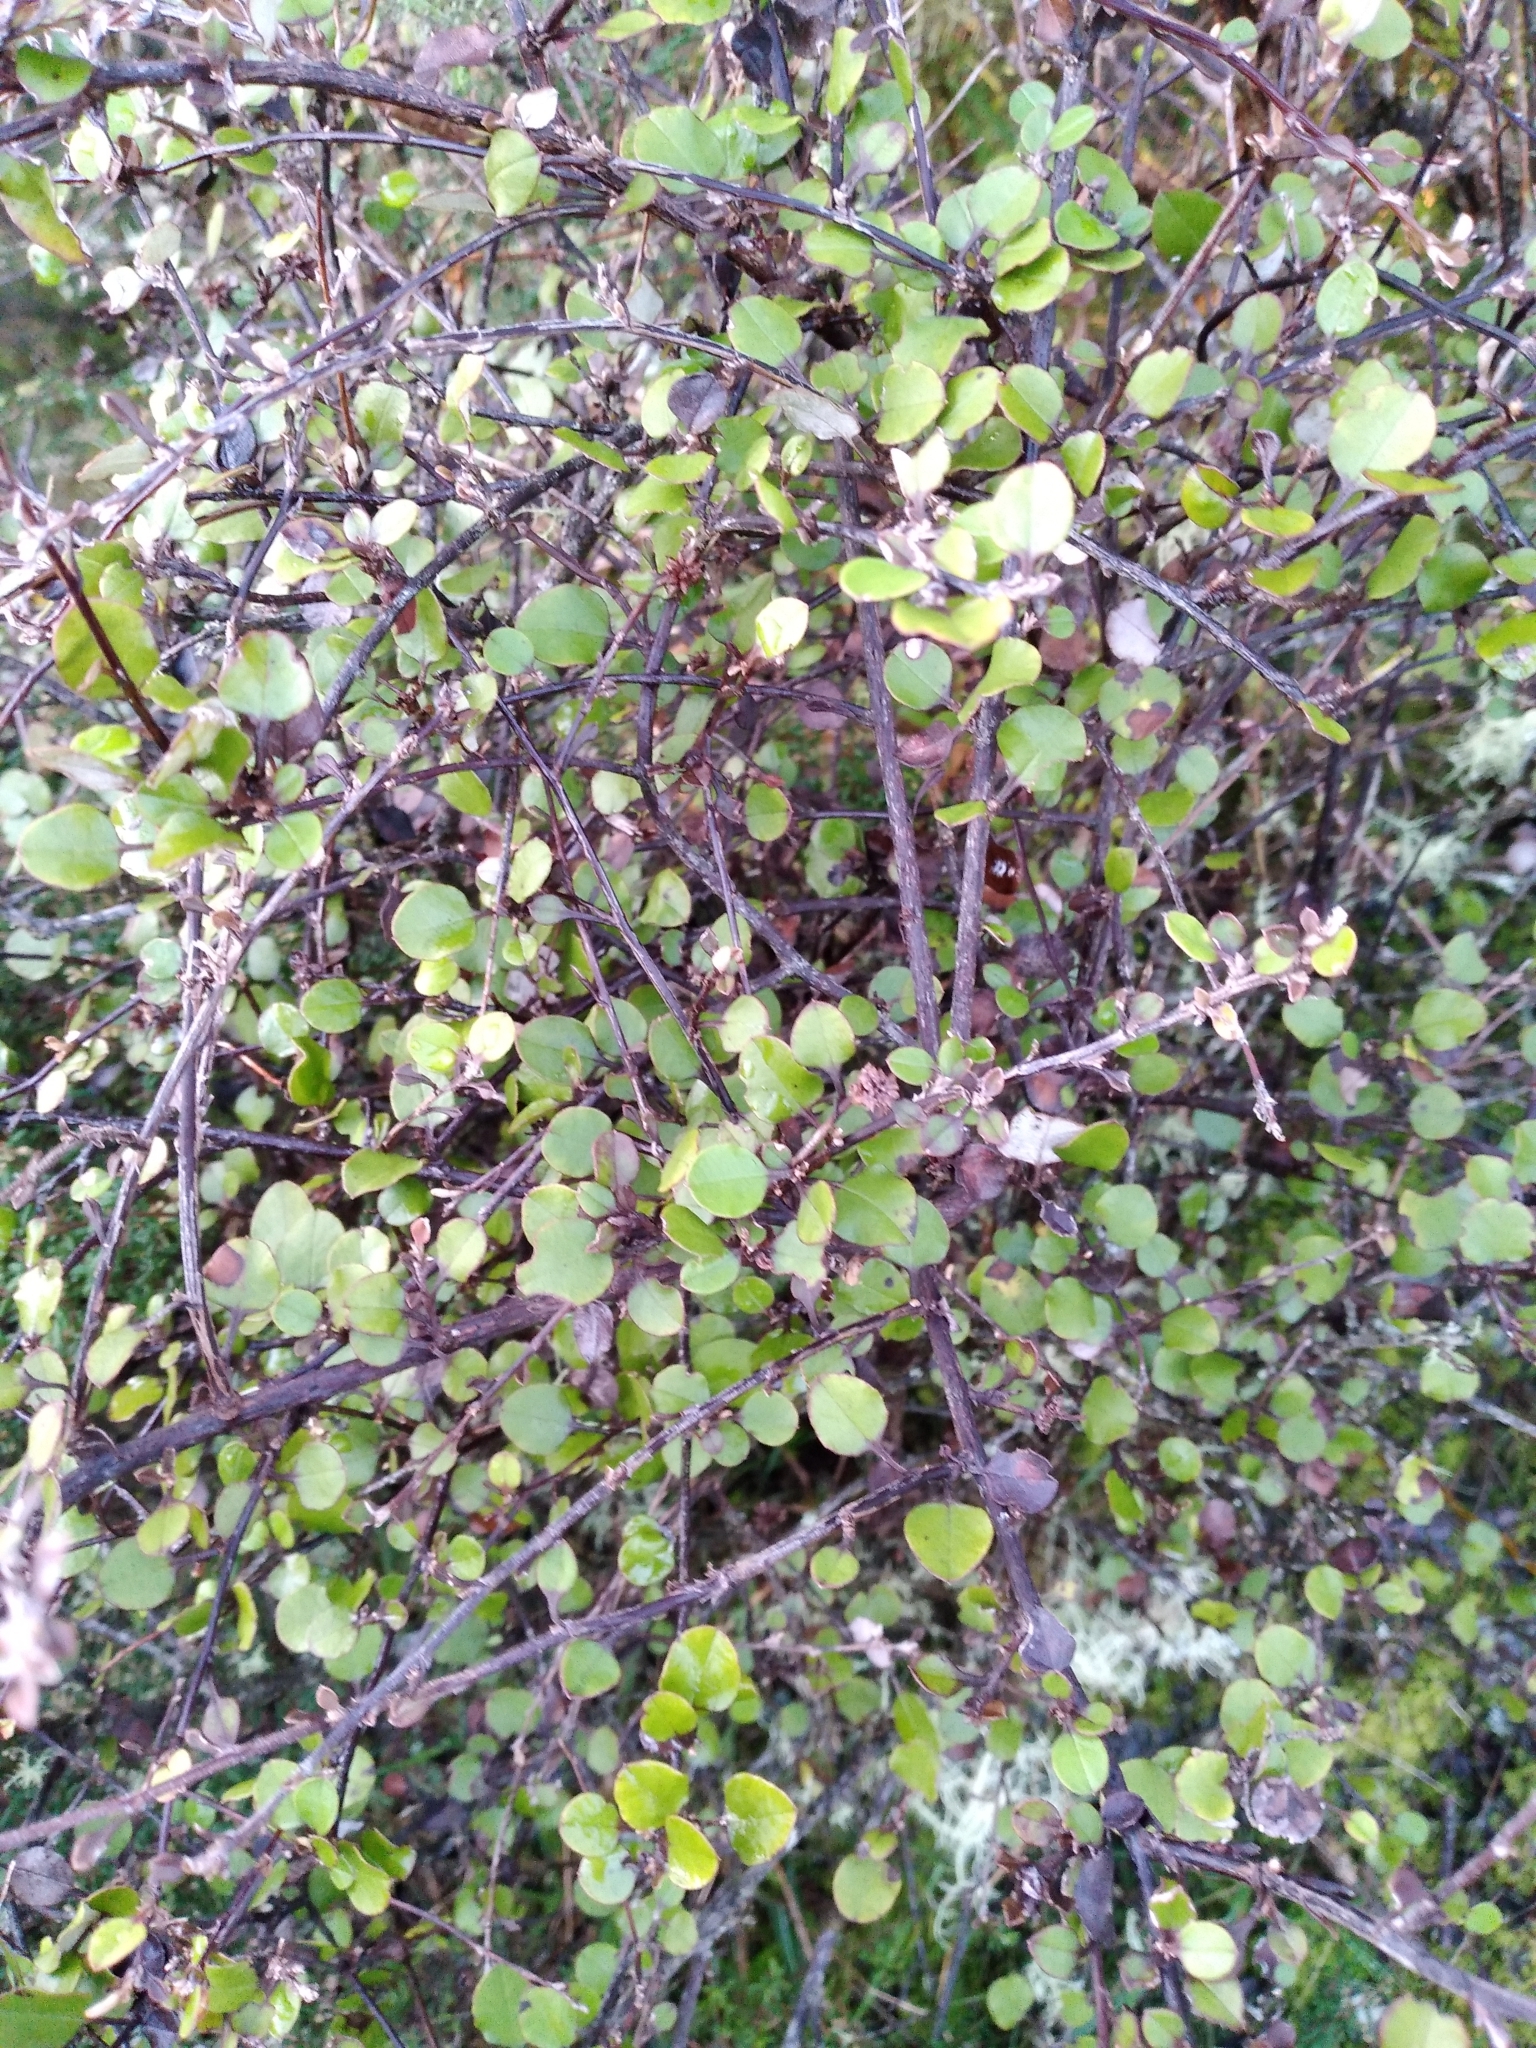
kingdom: Plantae
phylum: Tracheophyta
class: Magnoliopsida
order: Asterales
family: Asteraceae
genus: Ozothamnus
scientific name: Ozothamnus glomeratus
